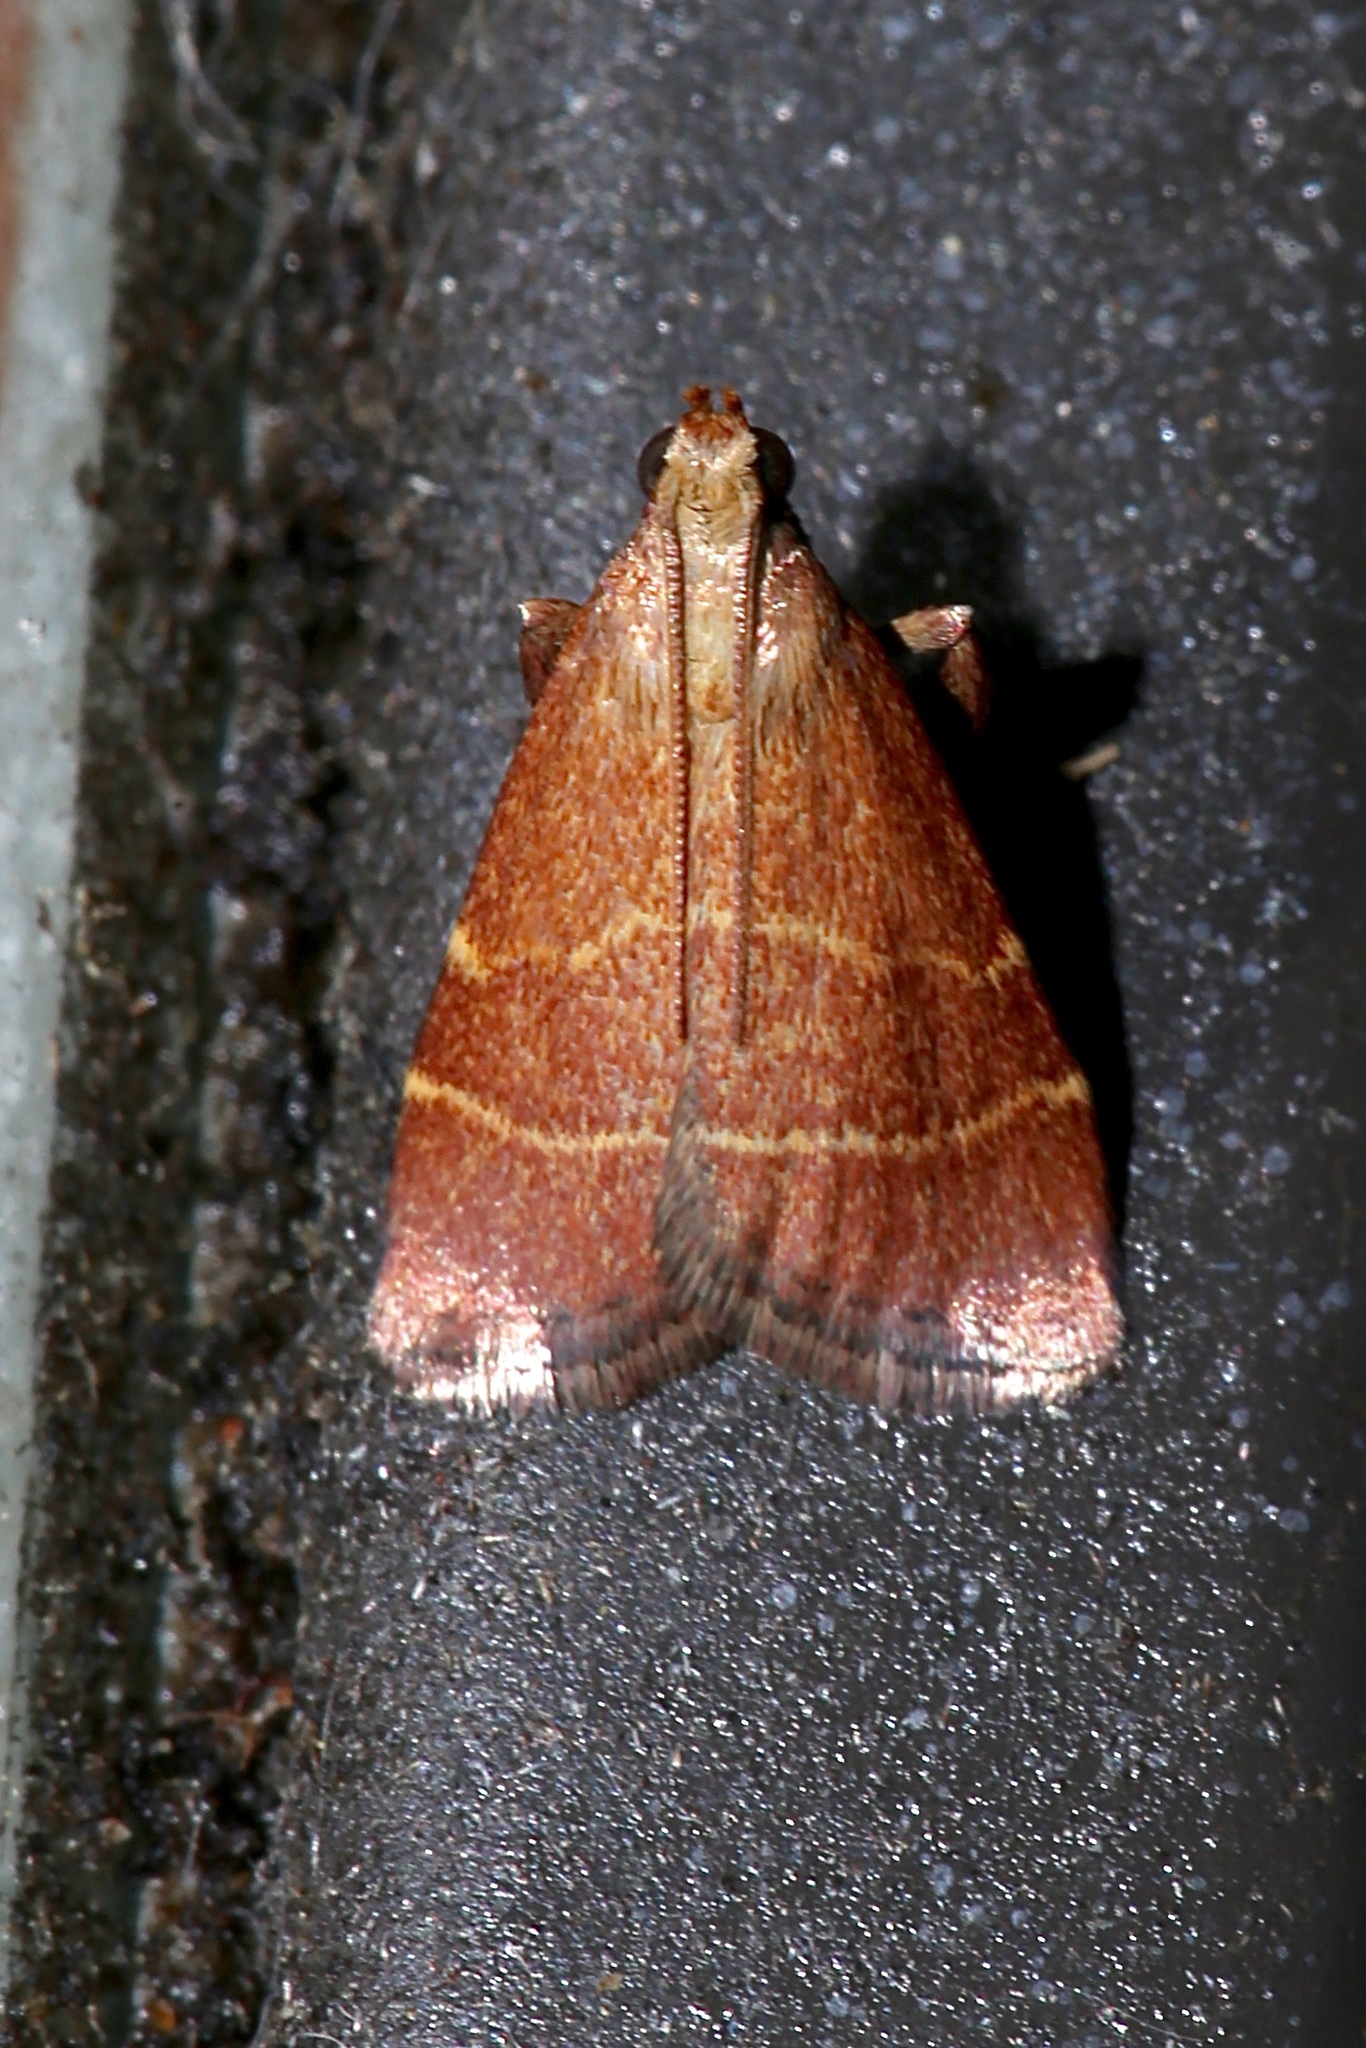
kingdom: Animalia
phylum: Arthropoda
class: Insecta
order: Lepidoptera
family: Pyralidae
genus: Arta
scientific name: Arta statalis
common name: Posturing arta moth
